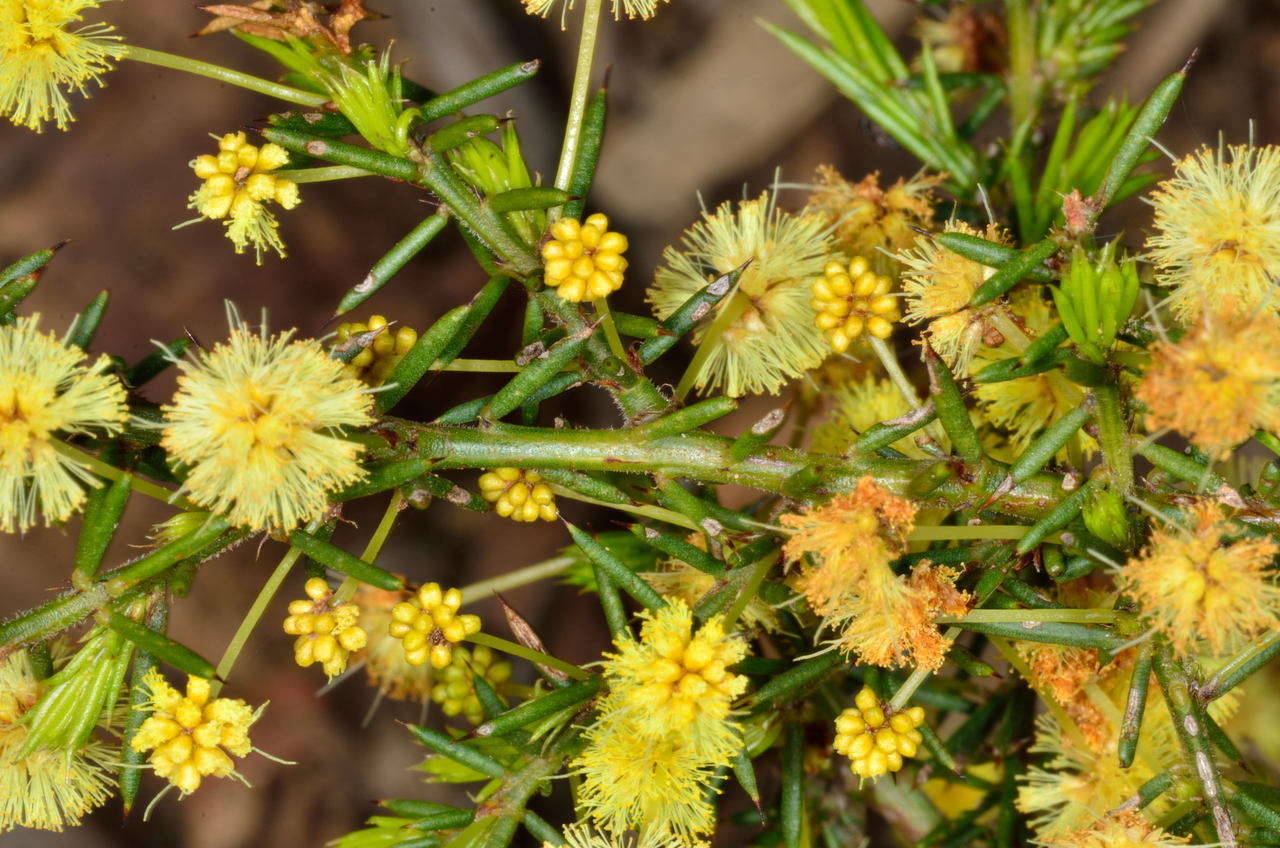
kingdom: Plantae
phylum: Tracheophyta
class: Magnoliopsida
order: Fabales
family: Fabaceae
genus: Acacia
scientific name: Acacia aculeatissima
